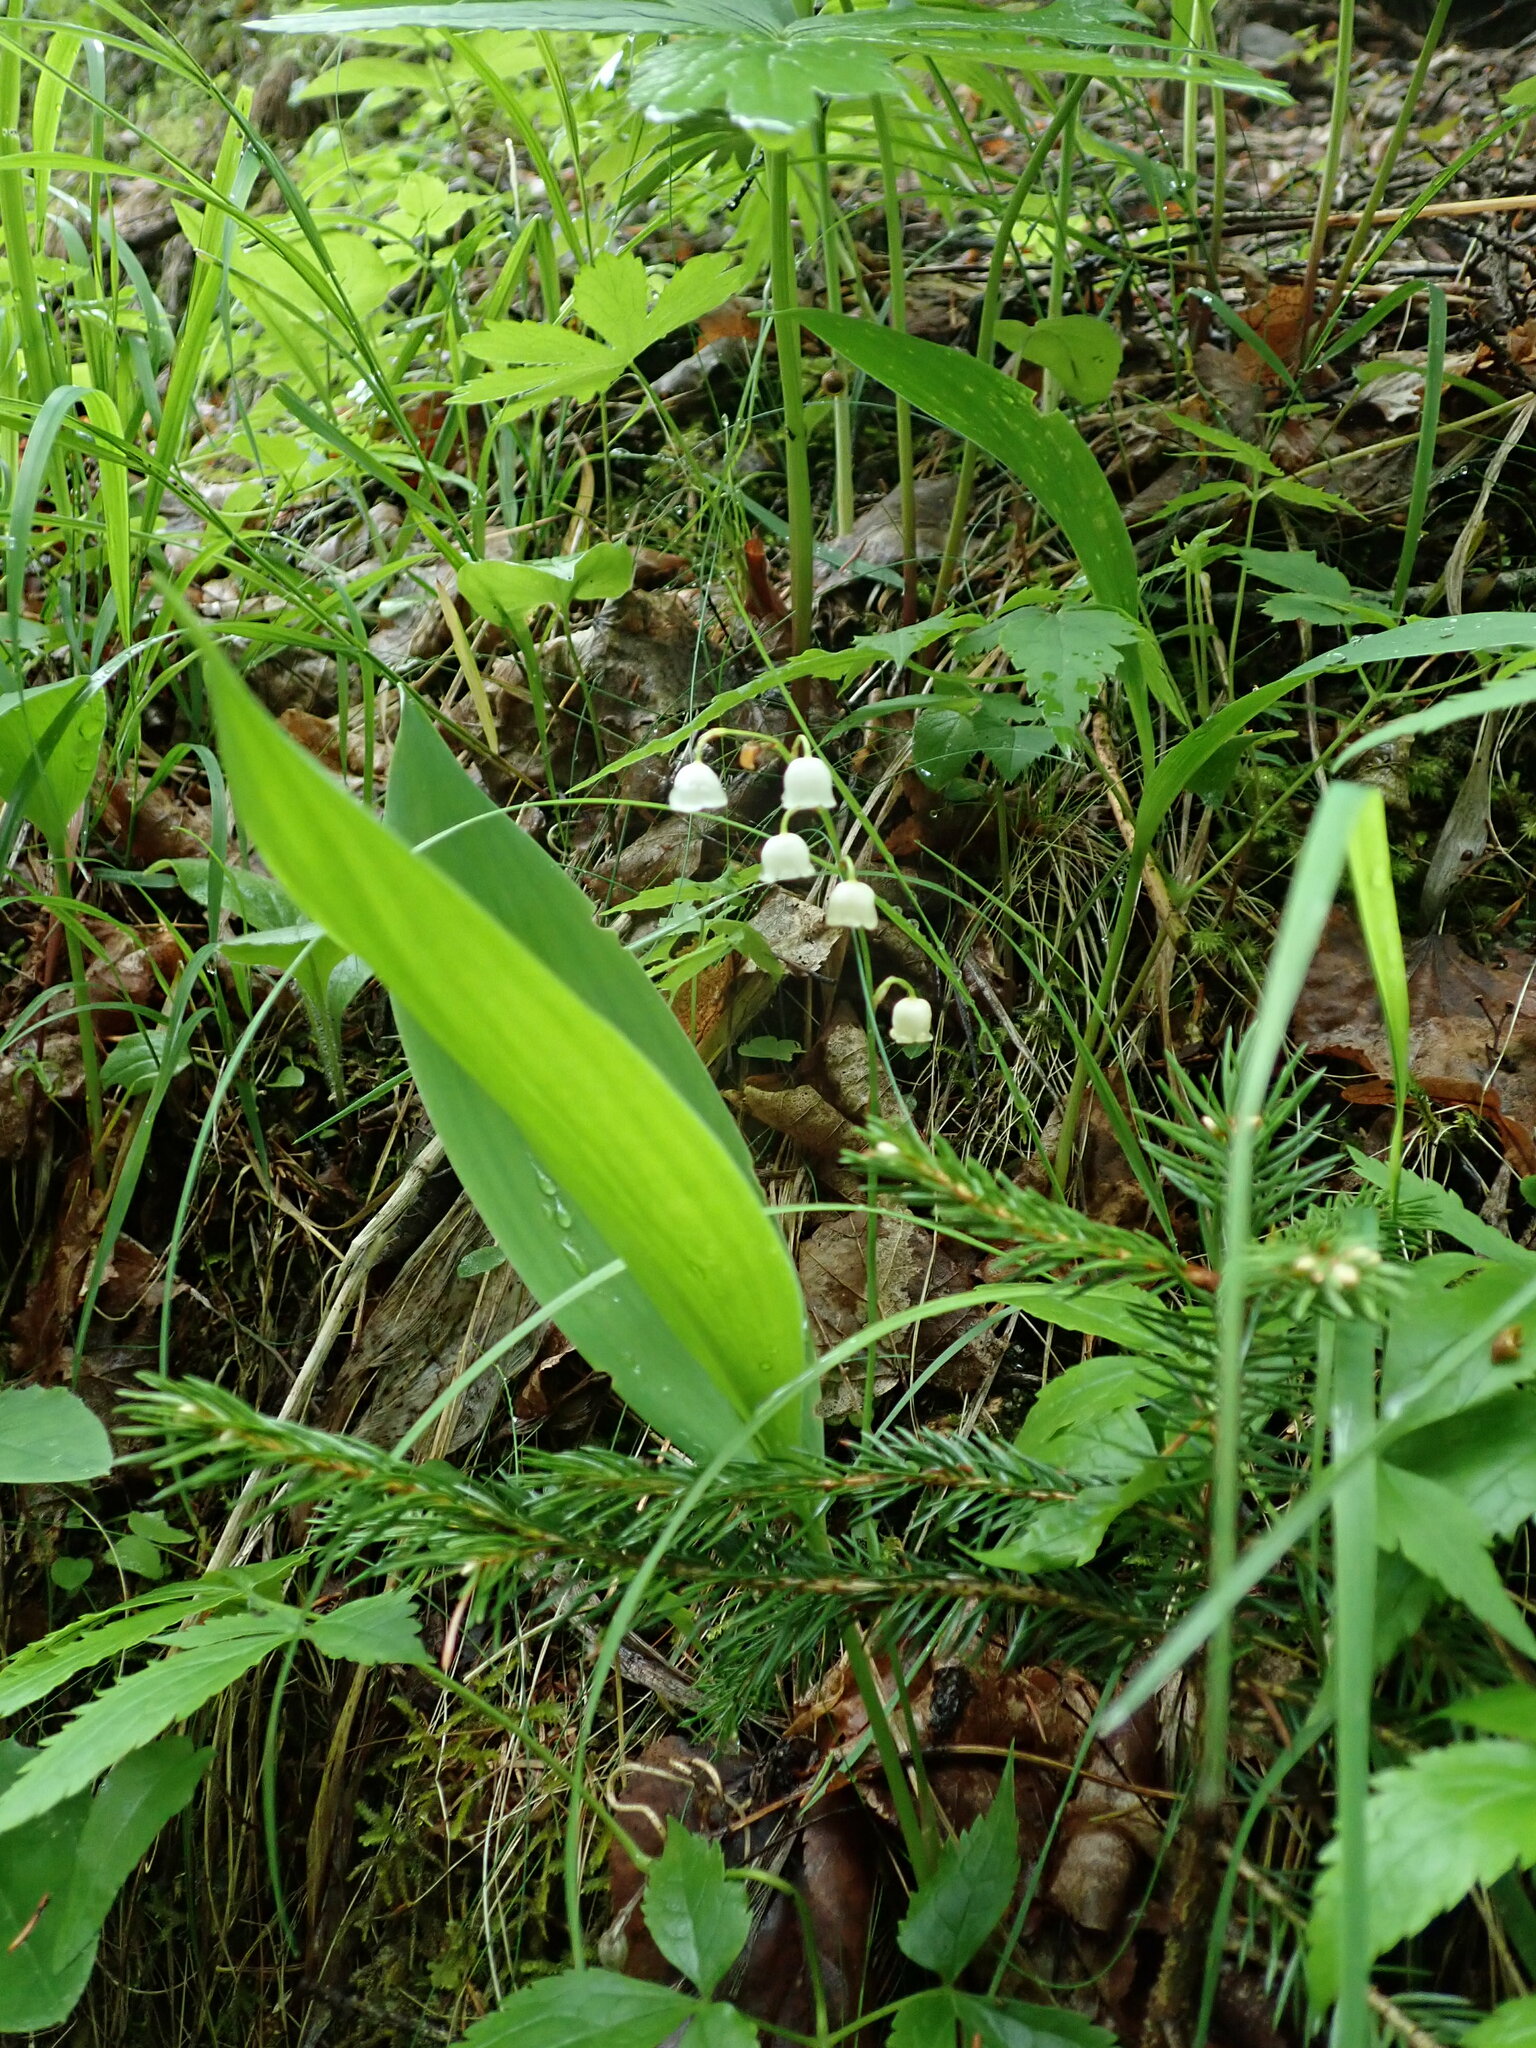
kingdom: Plantae
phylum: Tracheophyta
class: Liliopsida
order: Asparagales
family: Asparagaceae
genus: Convallaria
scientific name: Convallaria majalis
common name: Lily-of-the-valley
